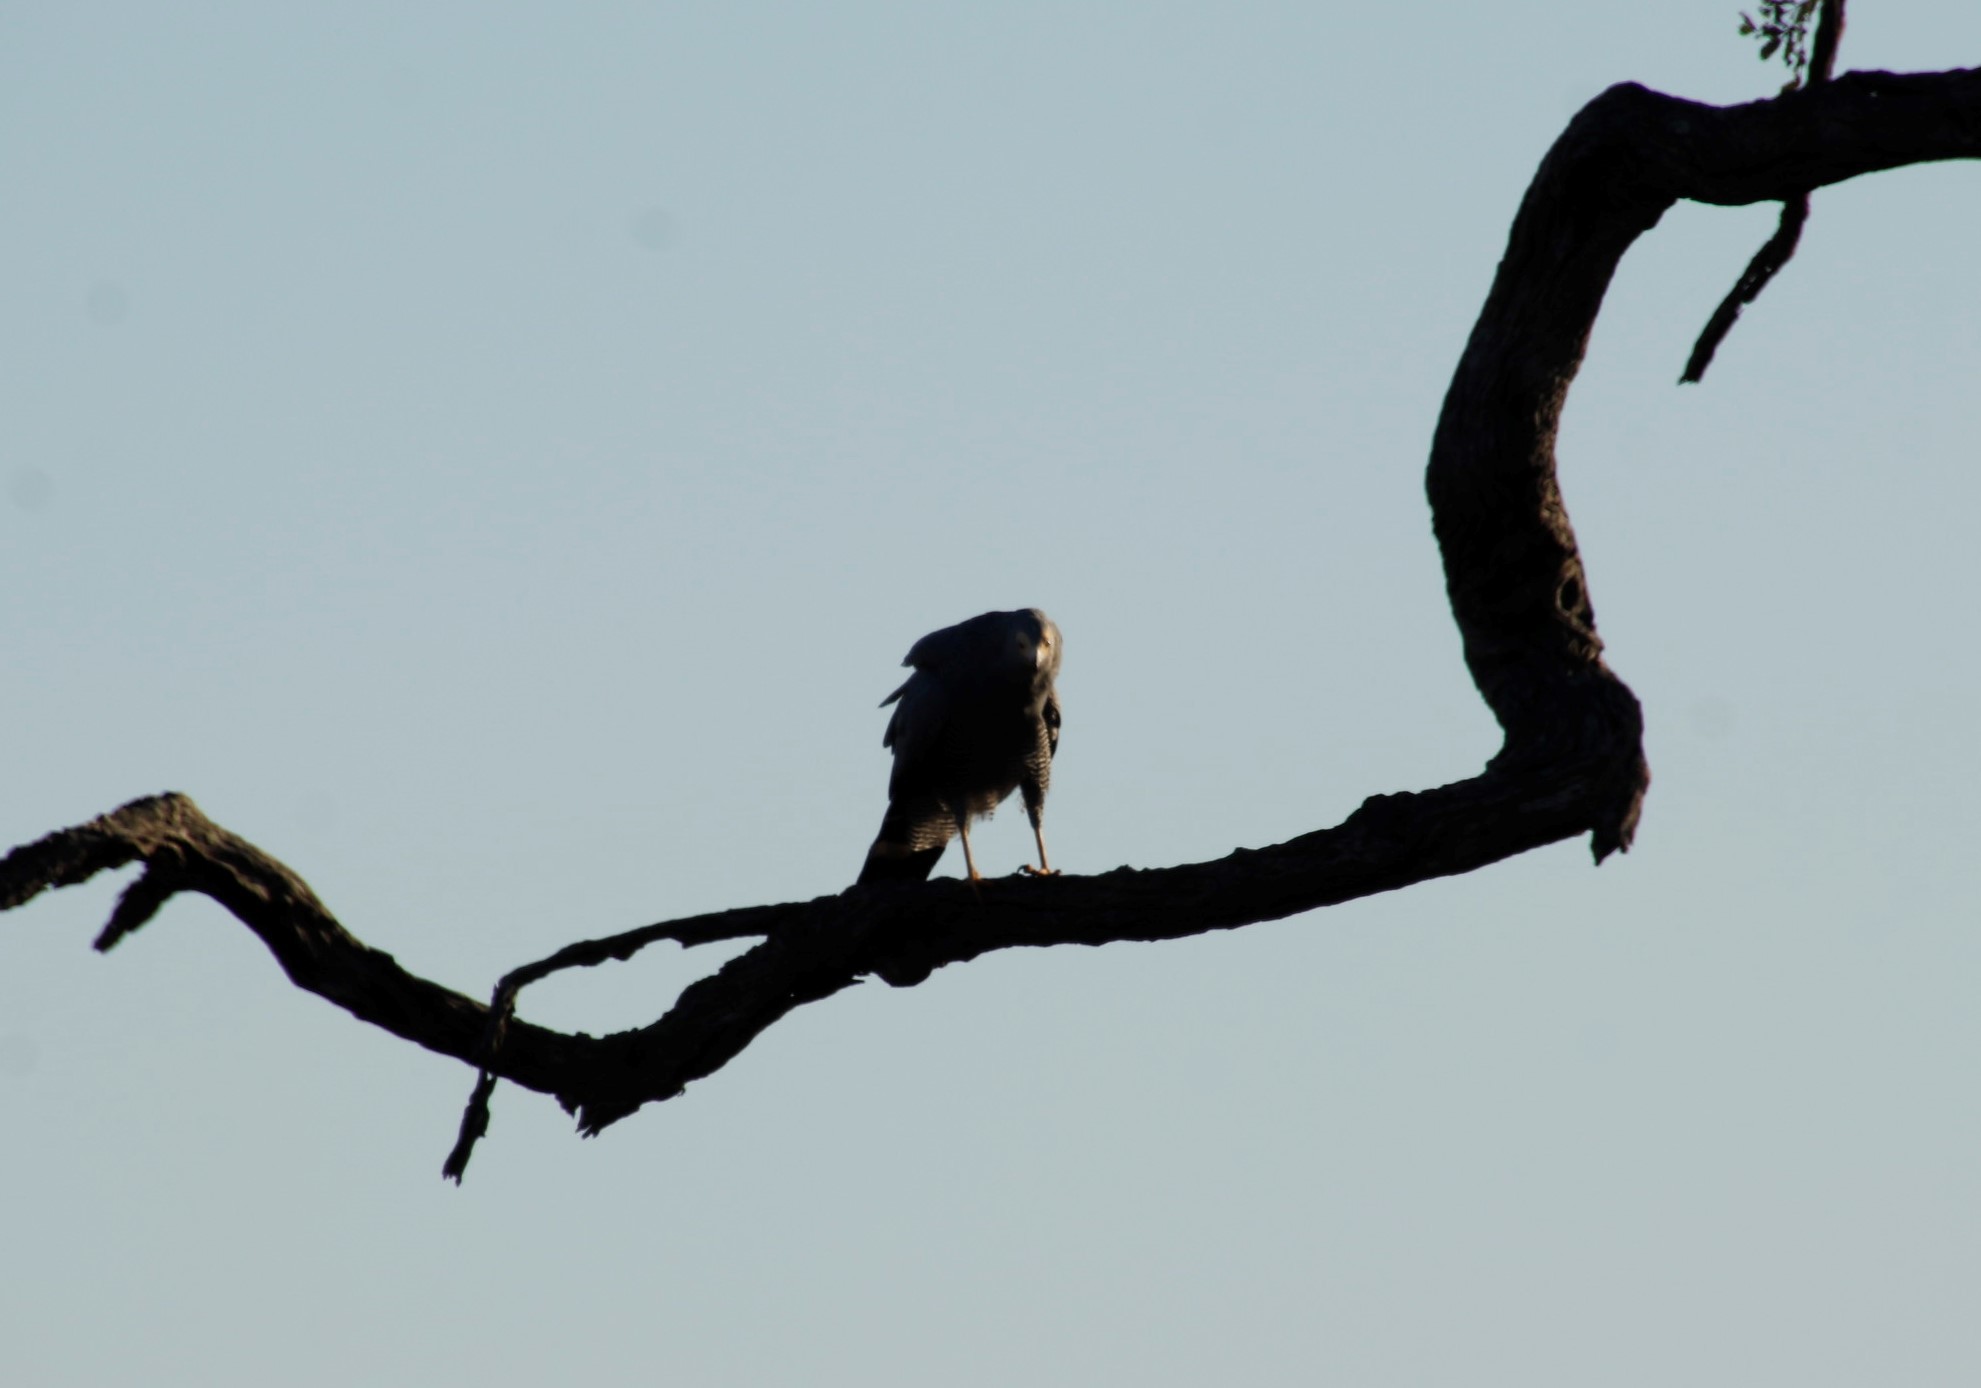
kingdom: Animalia
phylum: Chordata
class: Aves
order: Accipitriformes
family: Accipitridae
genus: Polyboroides
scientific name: Polyboroides typus
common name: African harrier-hawk
